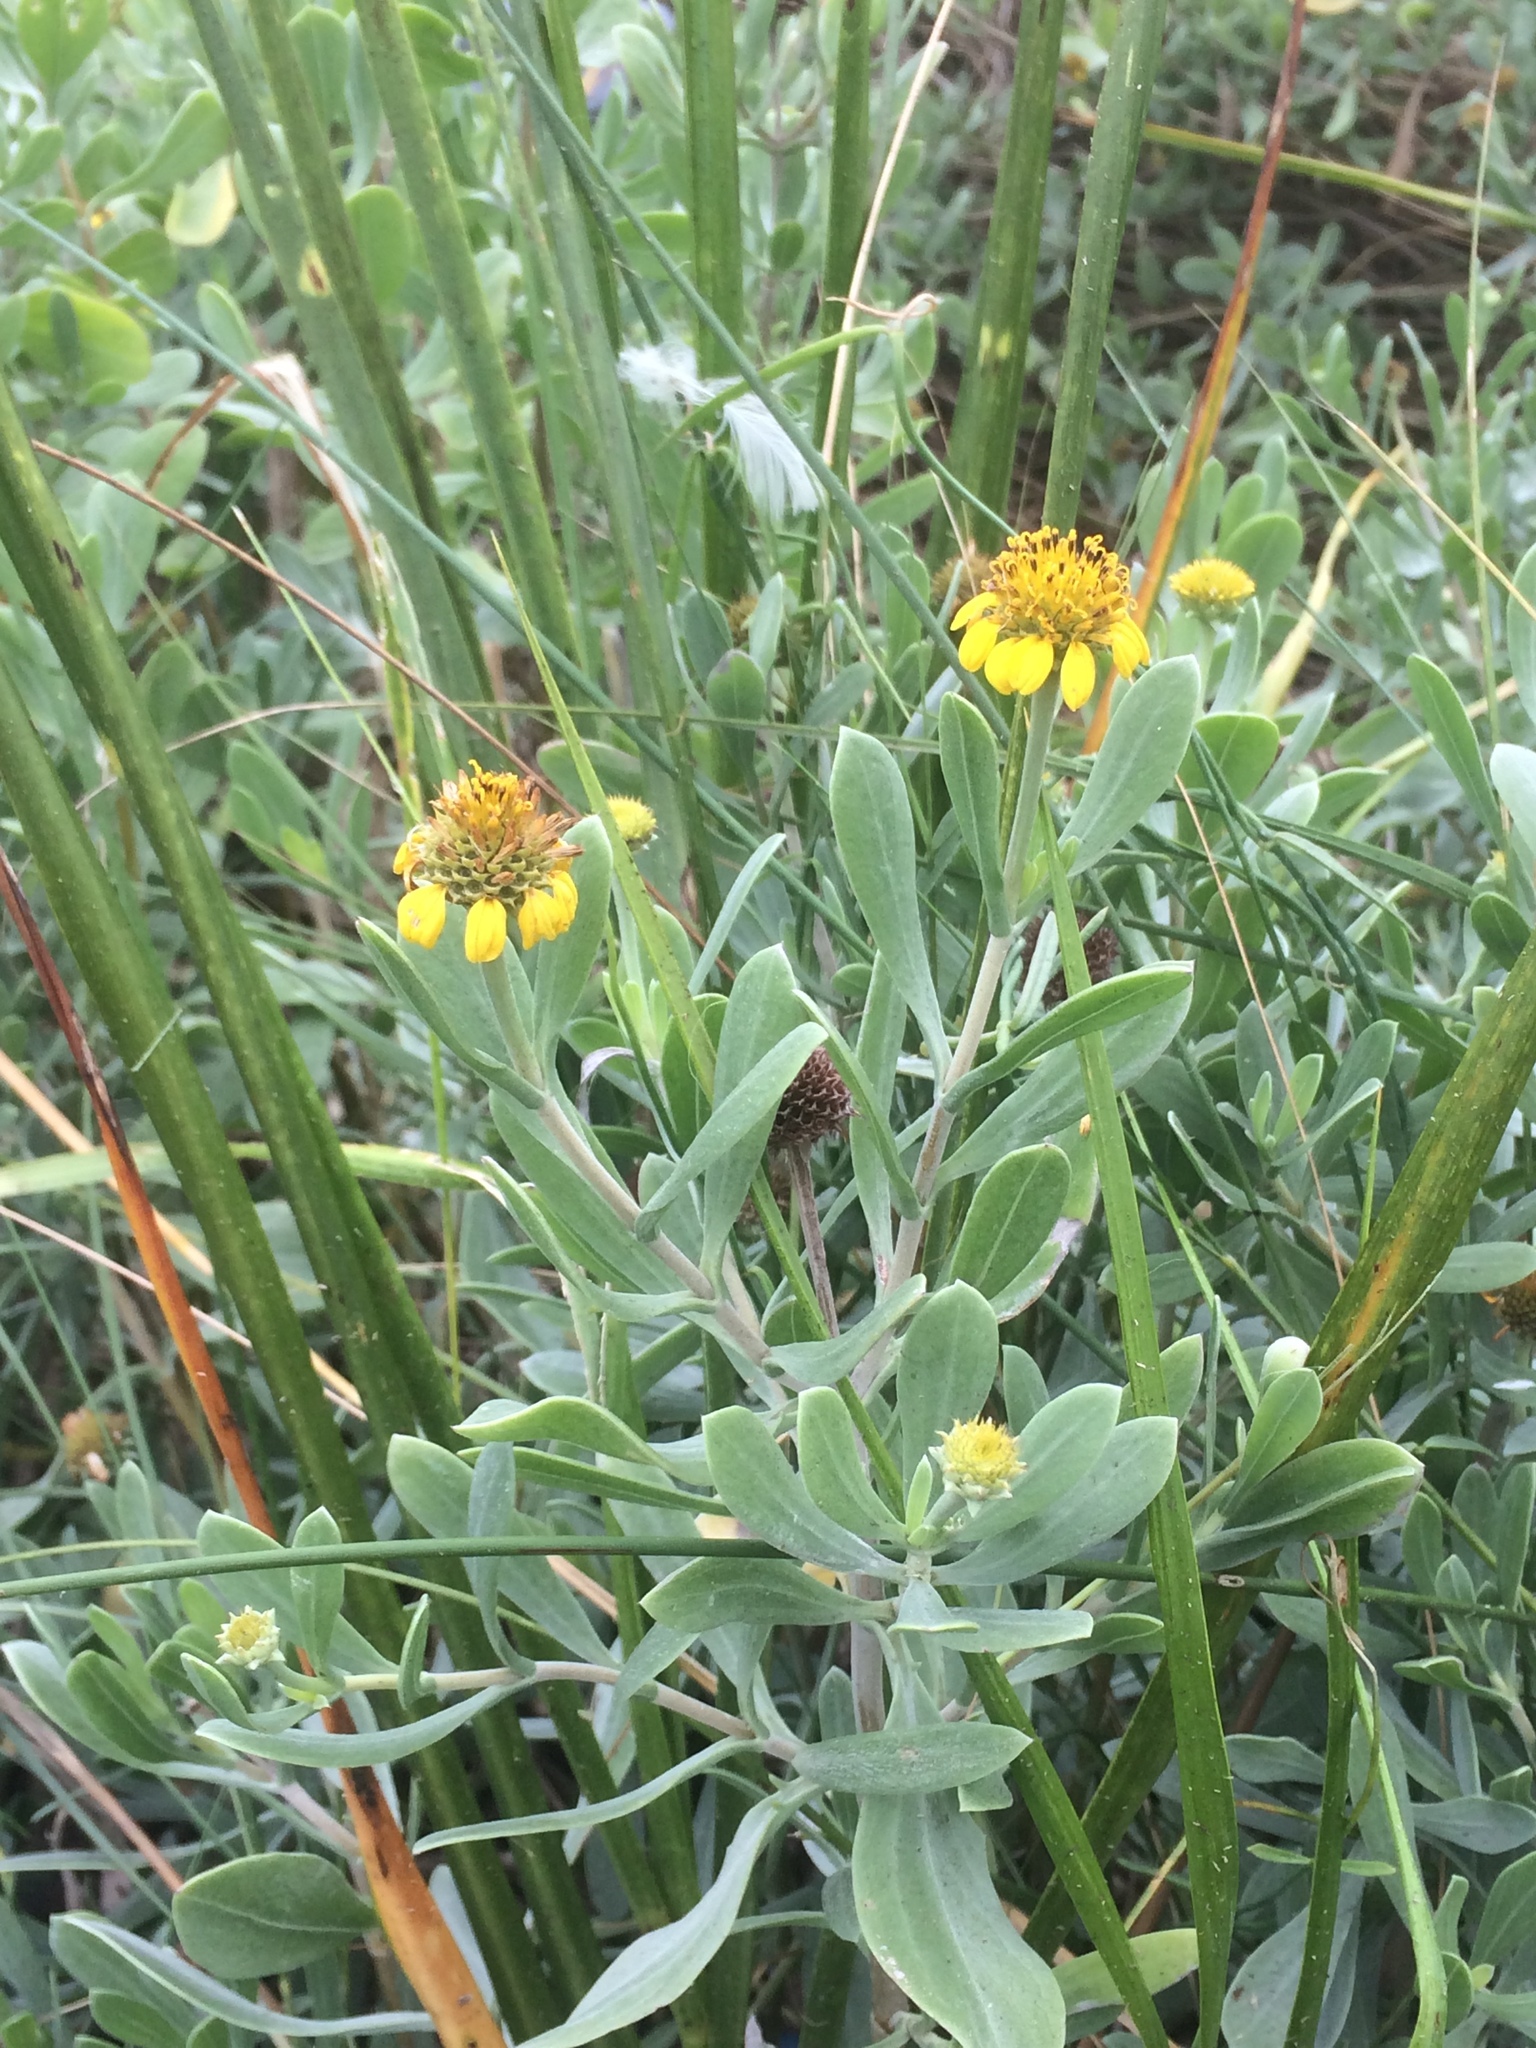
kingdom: Plantae
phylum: Tracheophyta
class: Magnoliopsida
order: Asterales
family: Asteraceae
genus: Borrichia
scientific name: Borrichia frutescens
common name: Sea oxeye
